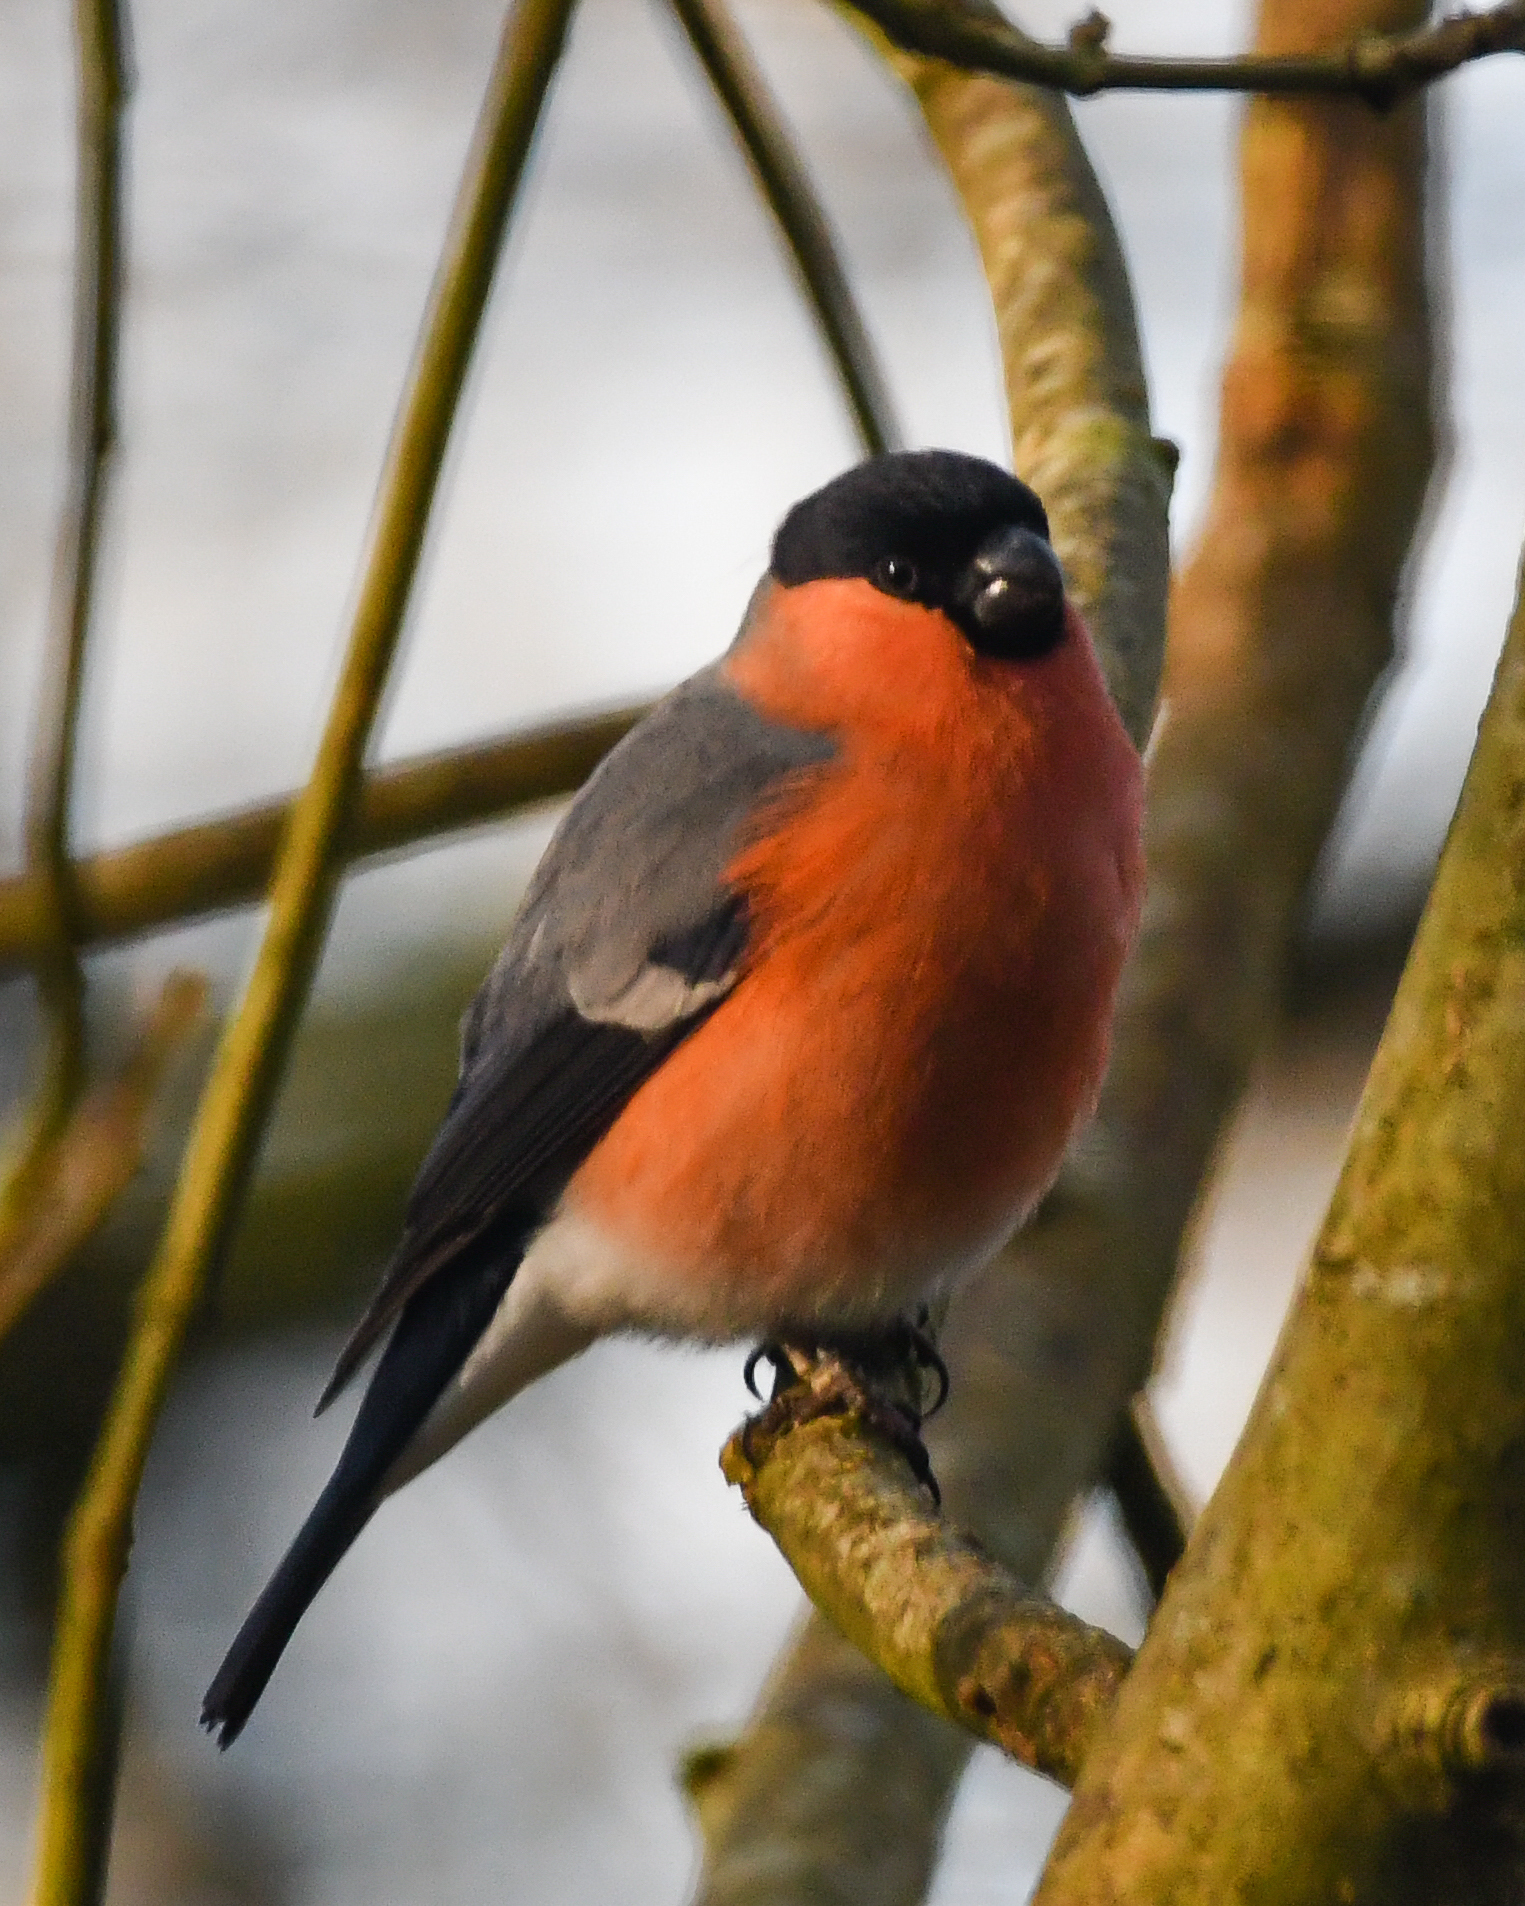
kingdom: Animalia
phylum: Chordata
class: Aves
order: Passeriformes
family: Fringillidae
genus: Pyrrhula
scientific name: Pyrrhula pyrrhula
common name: Eurasian bullfinch
